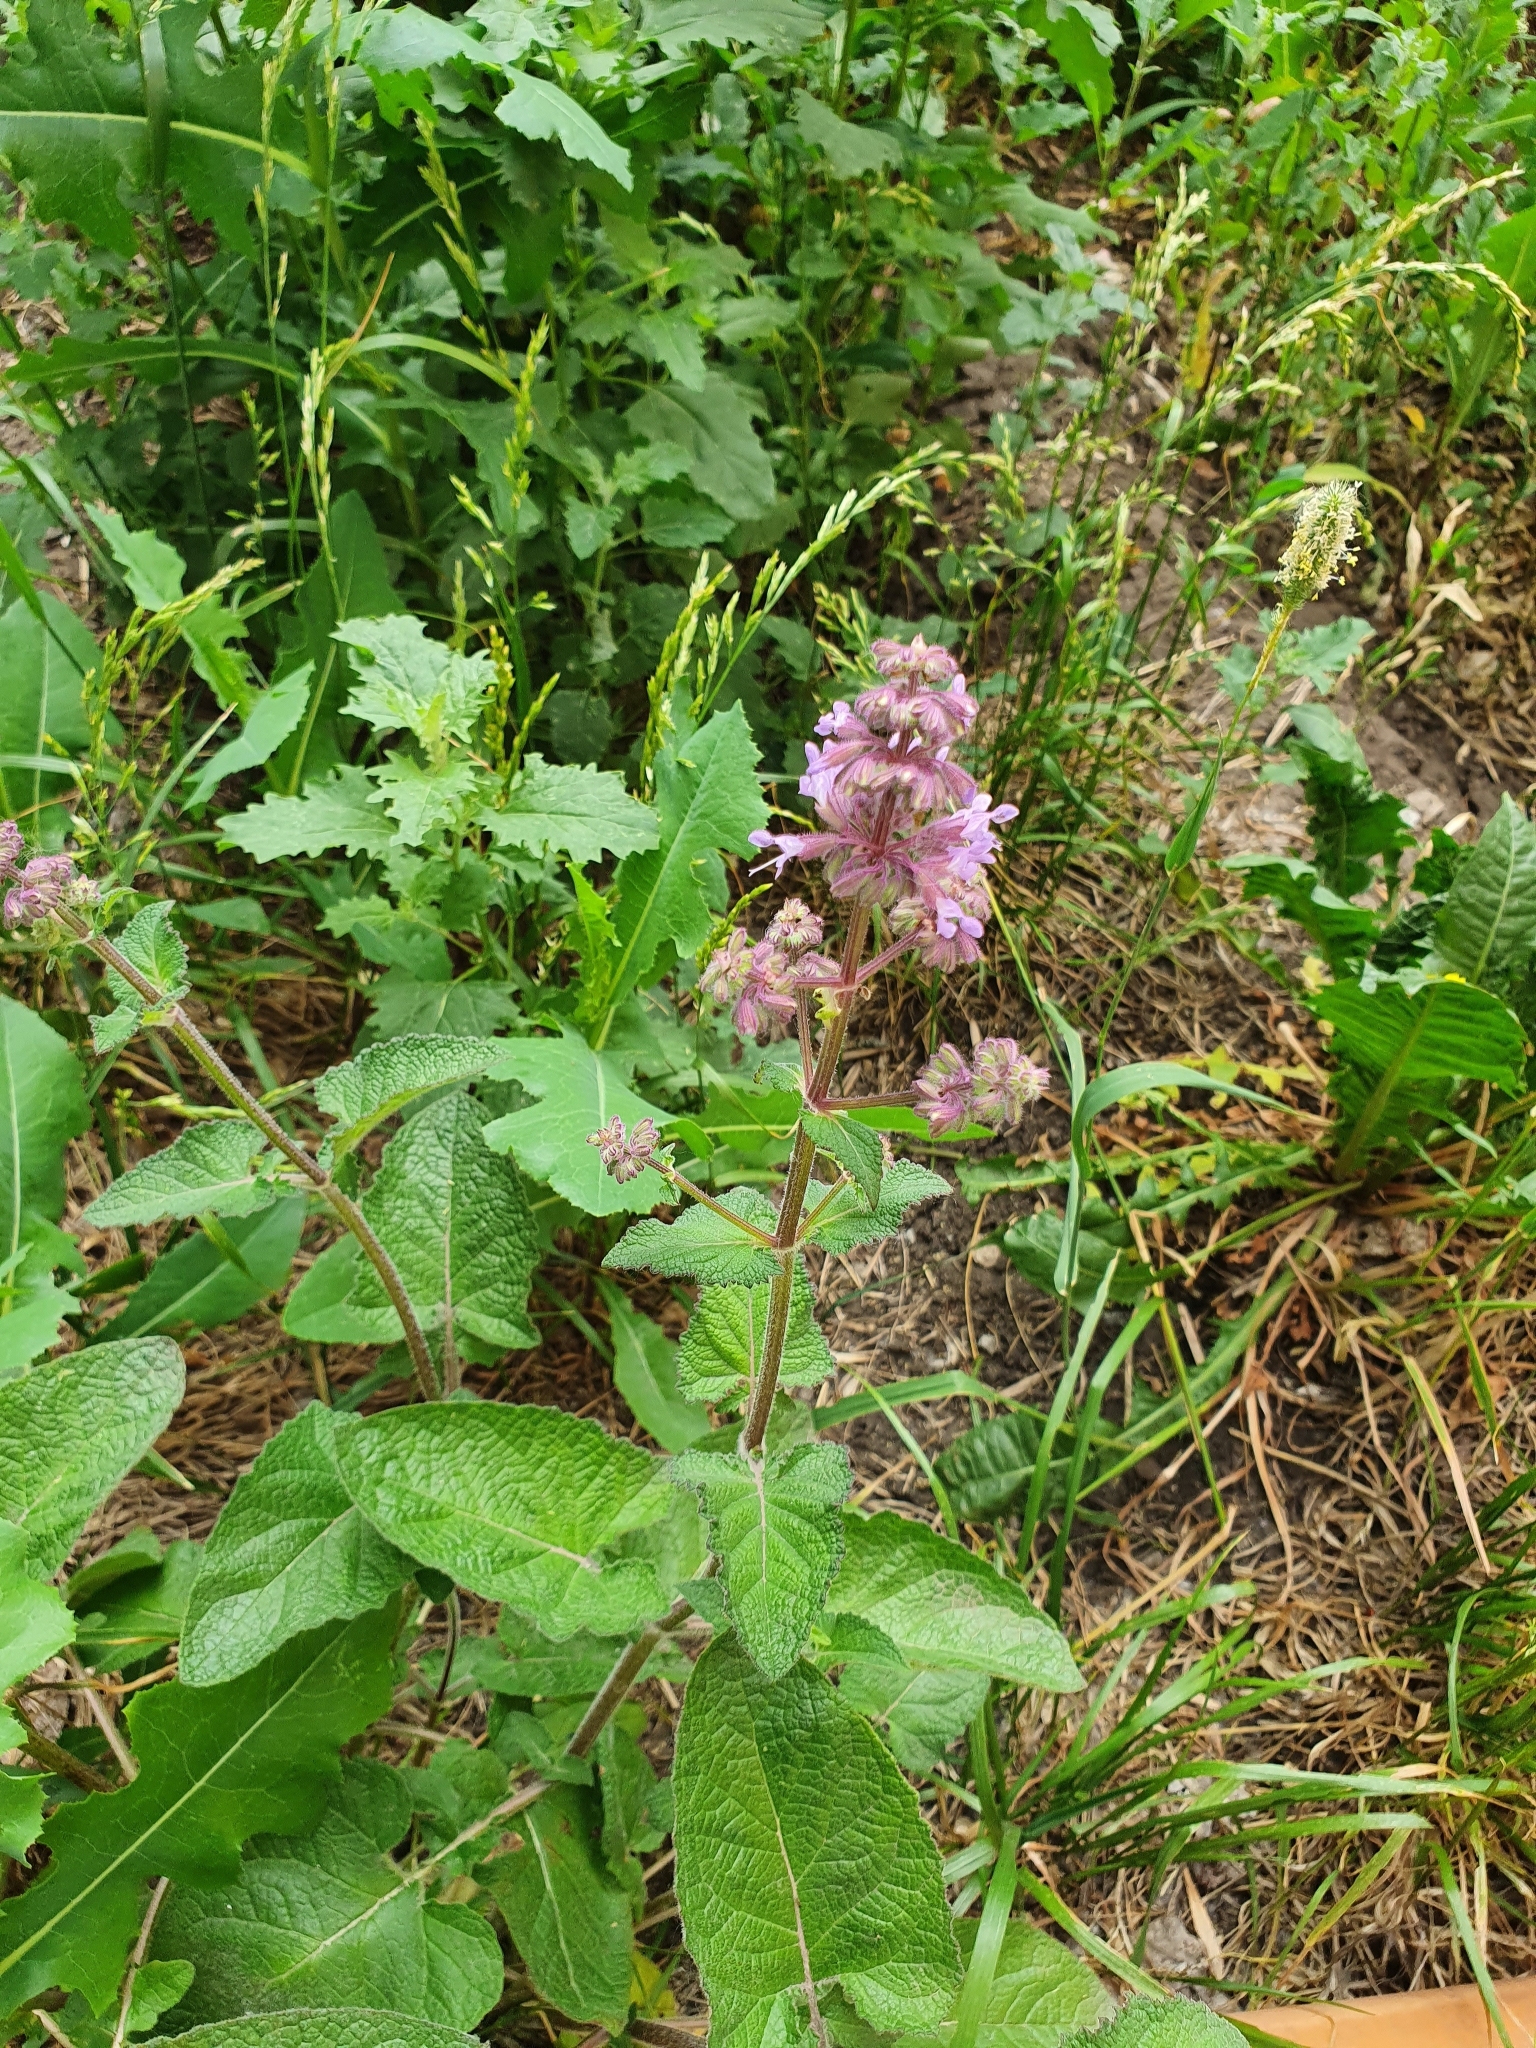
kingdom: Plantae
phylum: Tracheophyta
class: Magnoliopsida
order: Lamiales
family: Lamiaceae
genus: Salvia
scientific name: Salvia verticillata
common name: Whorled clary
